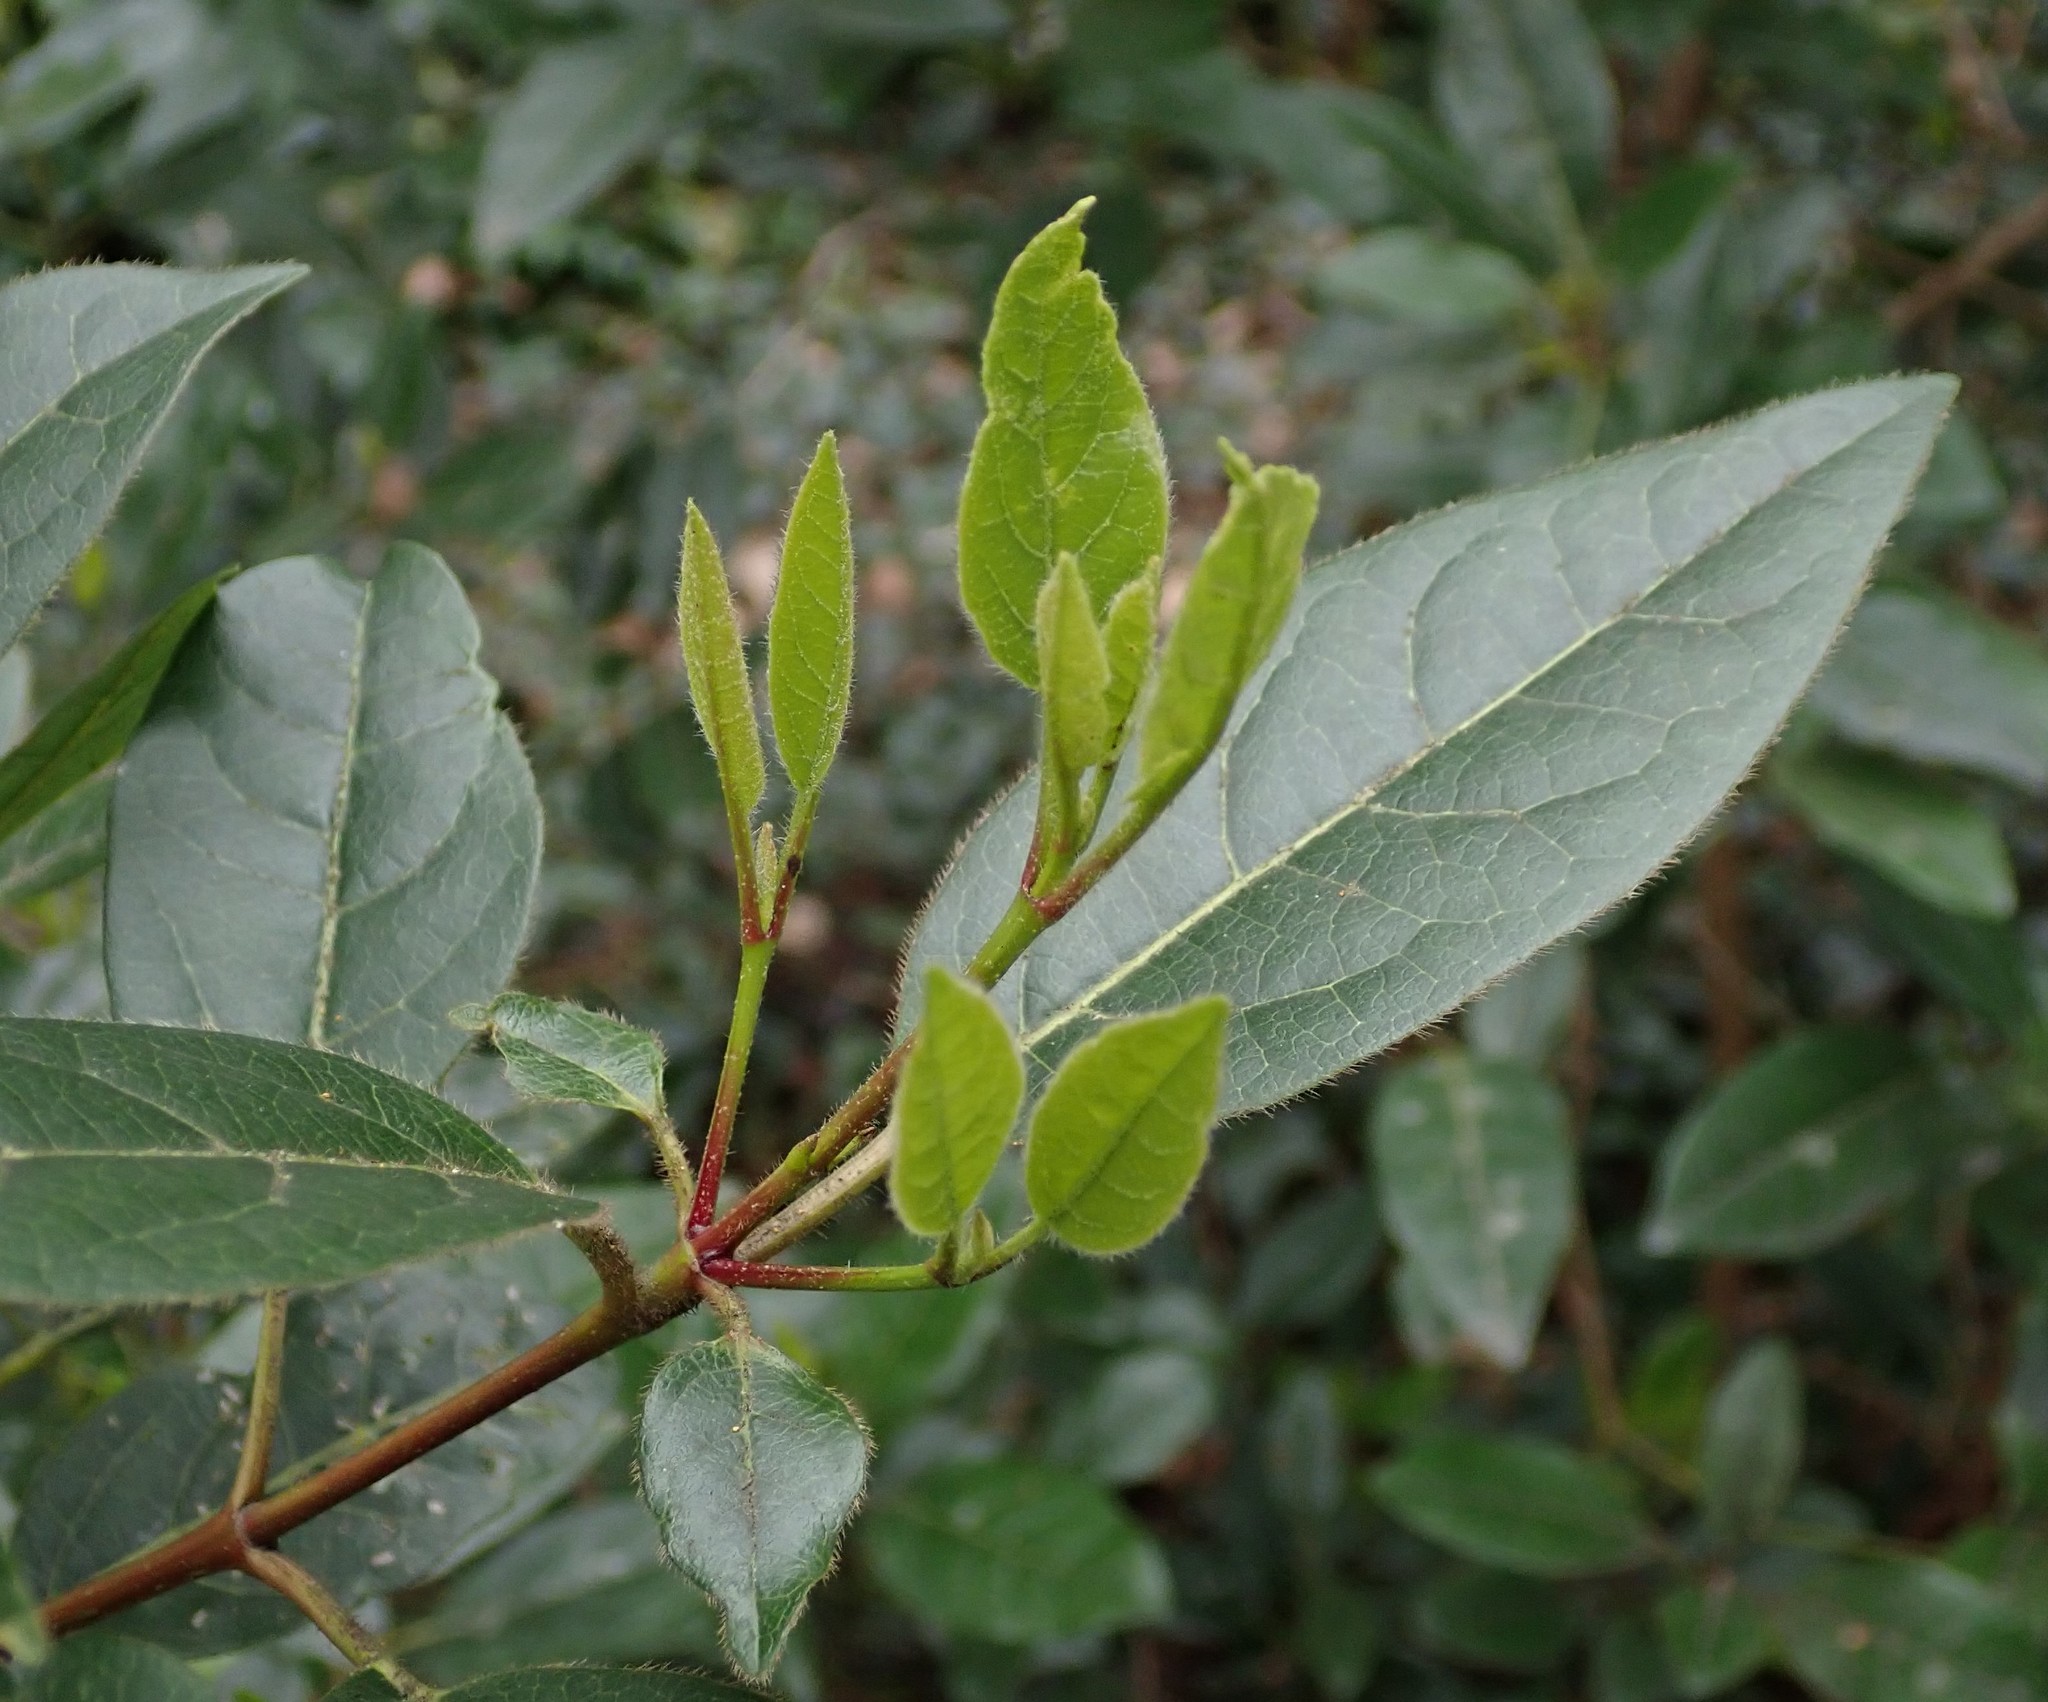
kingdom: Plantae
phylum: Tracheophyta
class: Magnoliopsida
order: Dipsacales
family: Viburnaceae
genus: Viburnum
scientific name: Viburnum tinus
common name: Laurustinus
